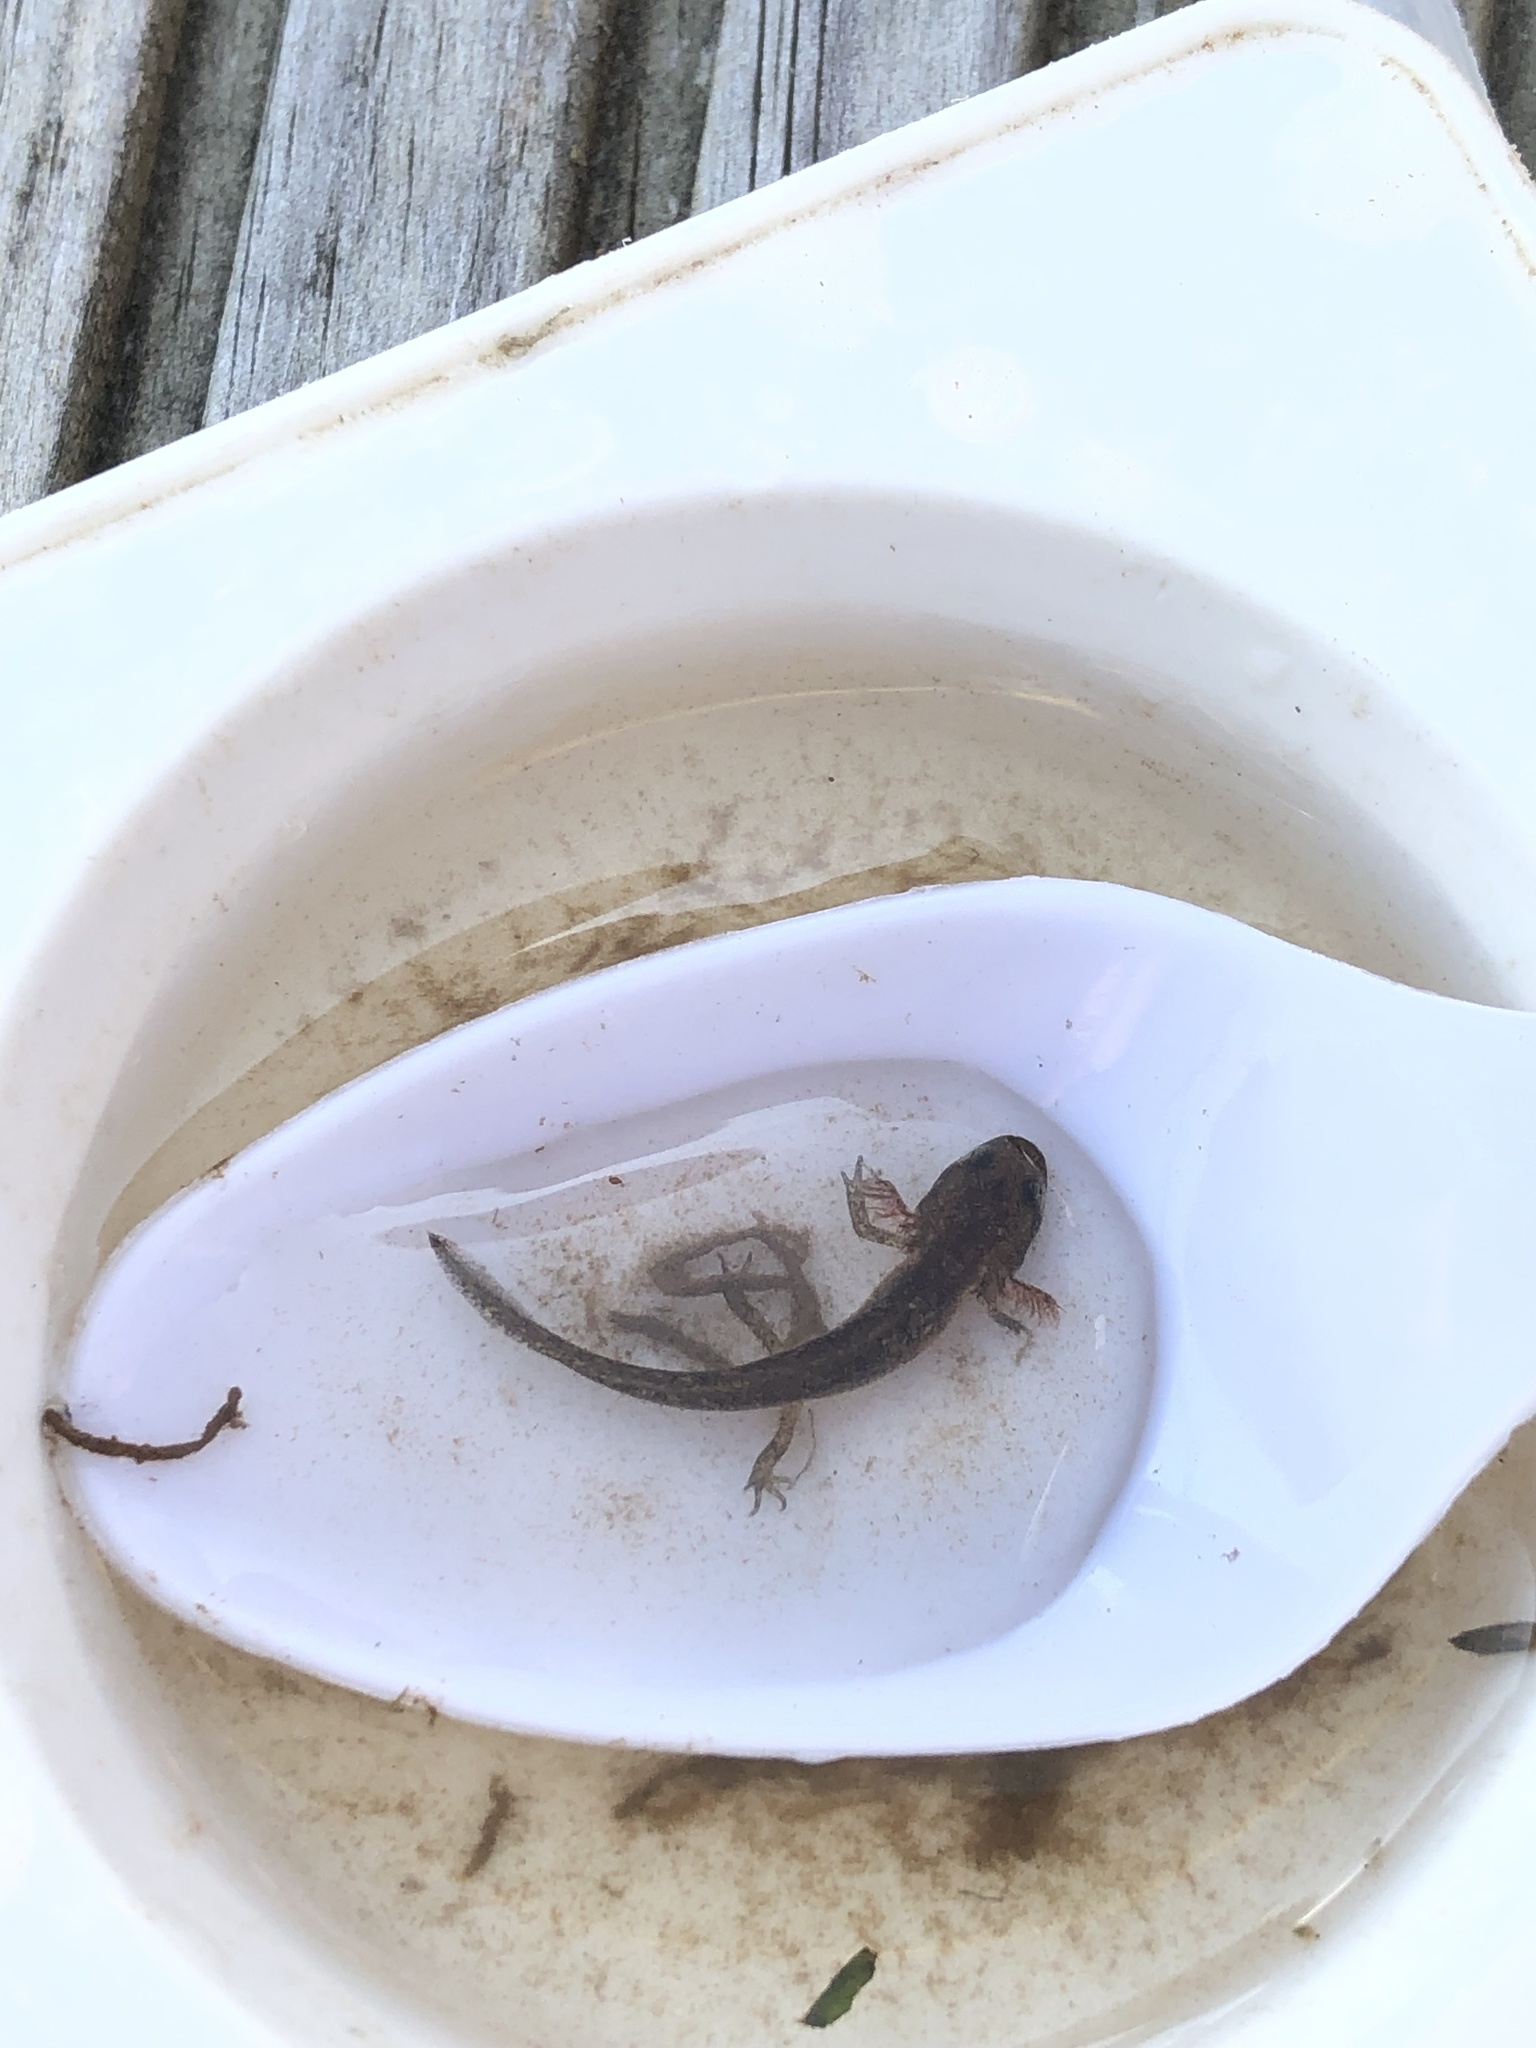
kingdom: Animalia
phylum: Chordata
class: Amphibia
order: Caudata
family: Salamandridae
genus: Lissotriton
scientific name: Lissotriton
